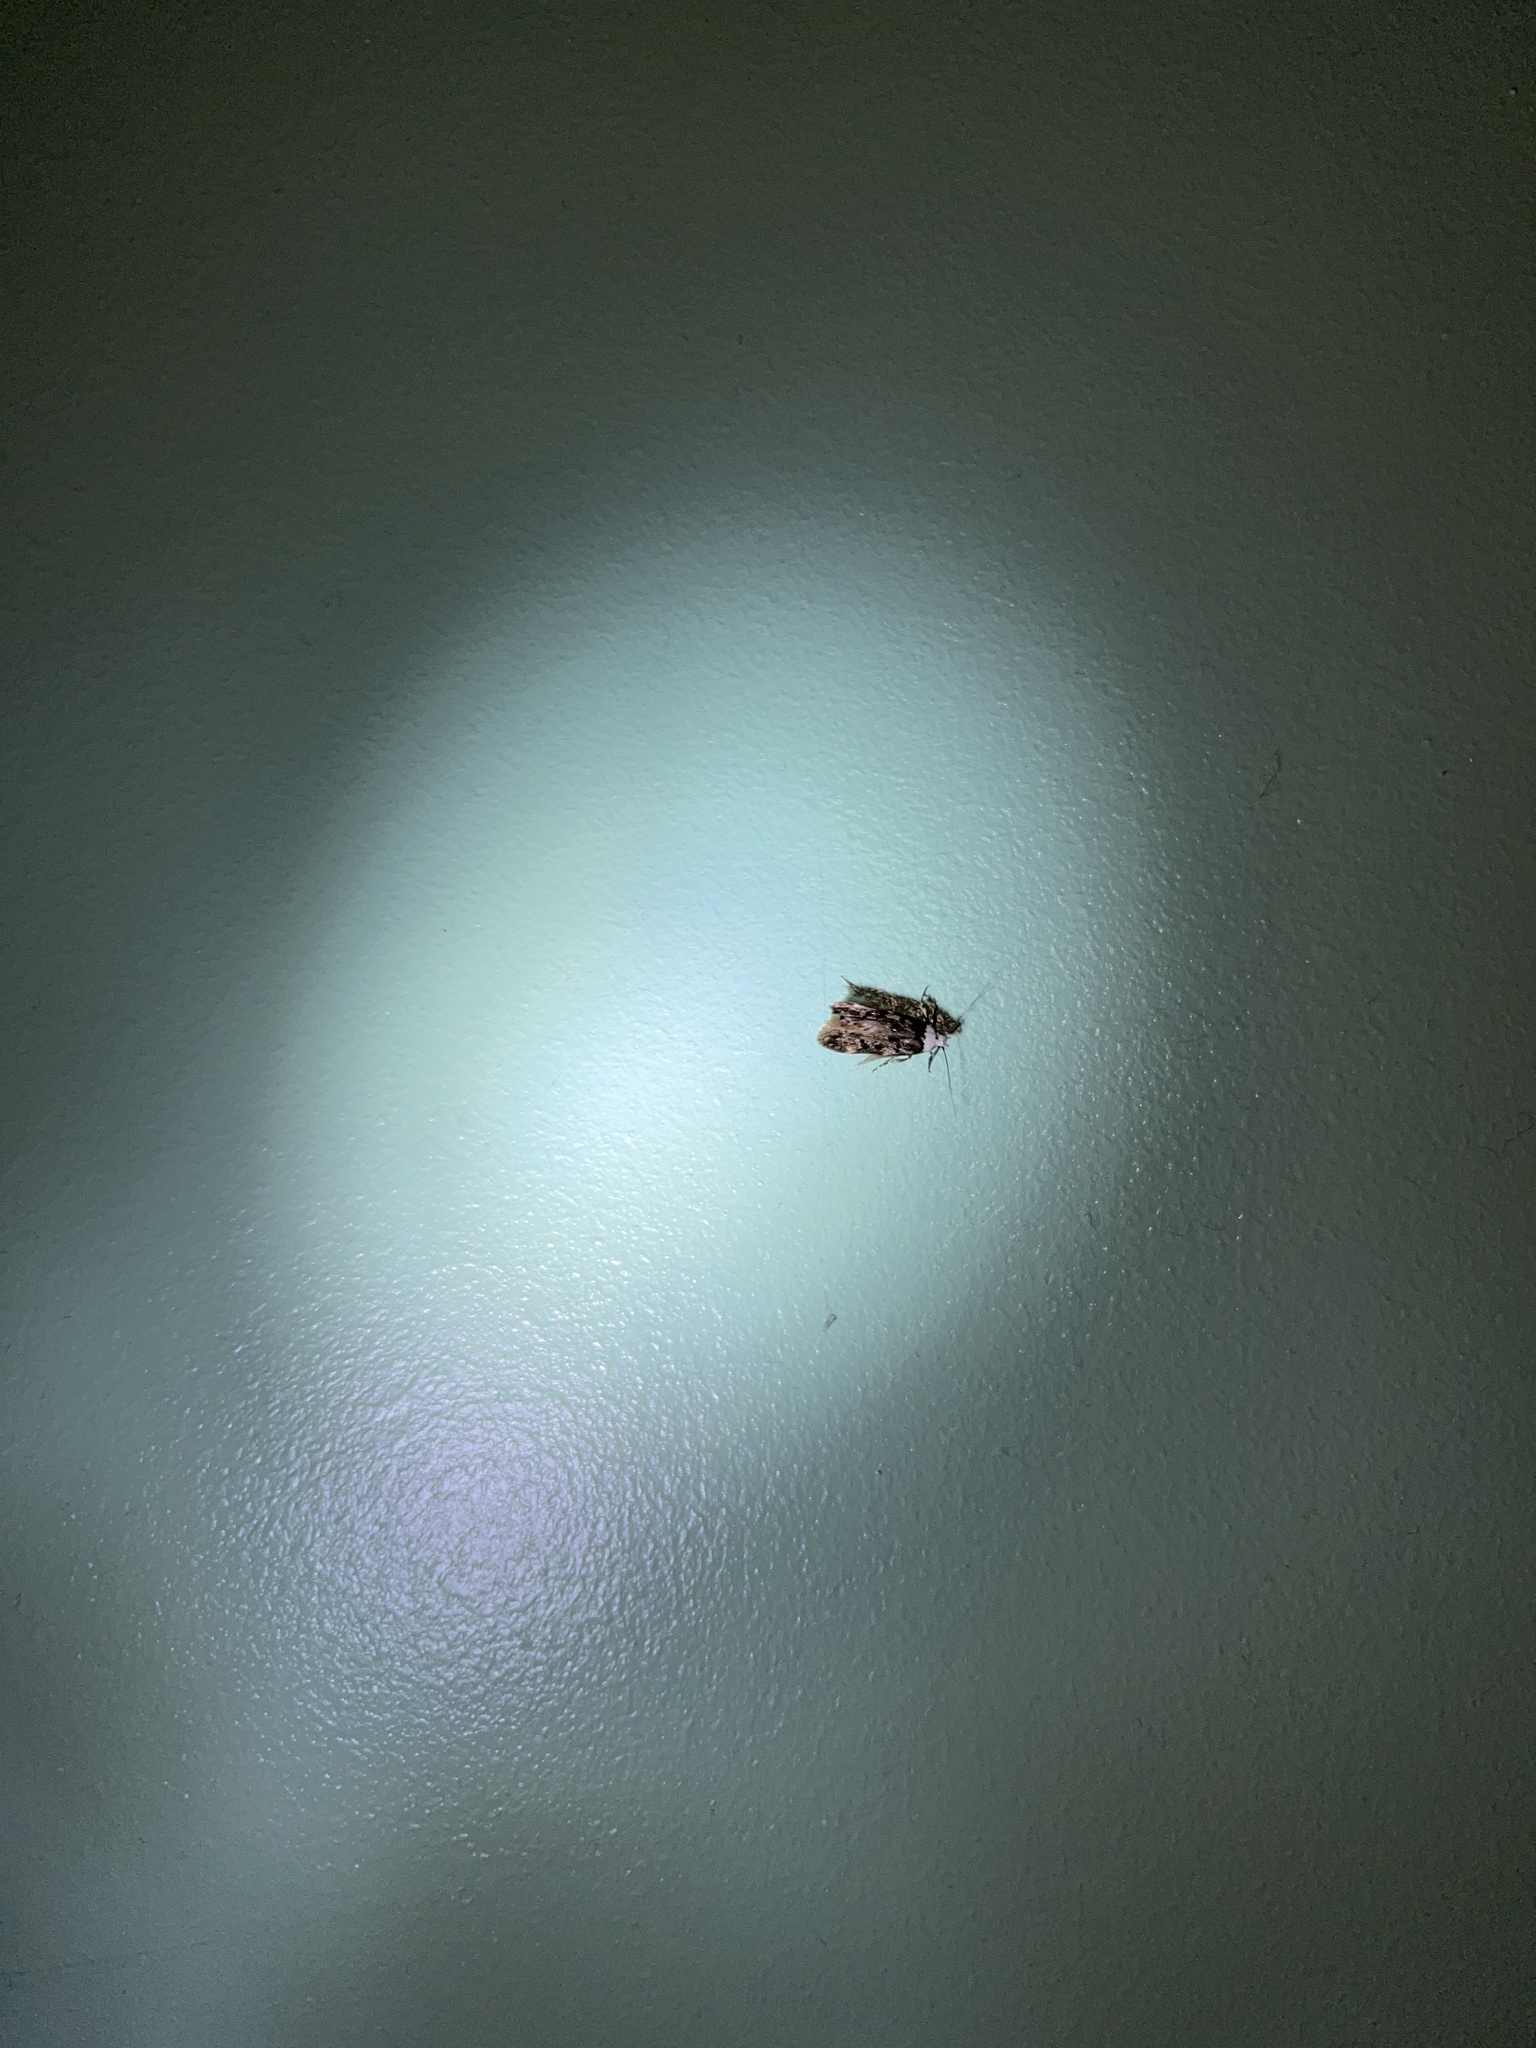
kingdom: Animalia
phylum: Arthropoda
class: Insecta
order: Lepidoptera
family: Oecophoridae
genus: Endrosis
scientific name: Endrosis sarcitrella
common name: White-shouldered house moth
